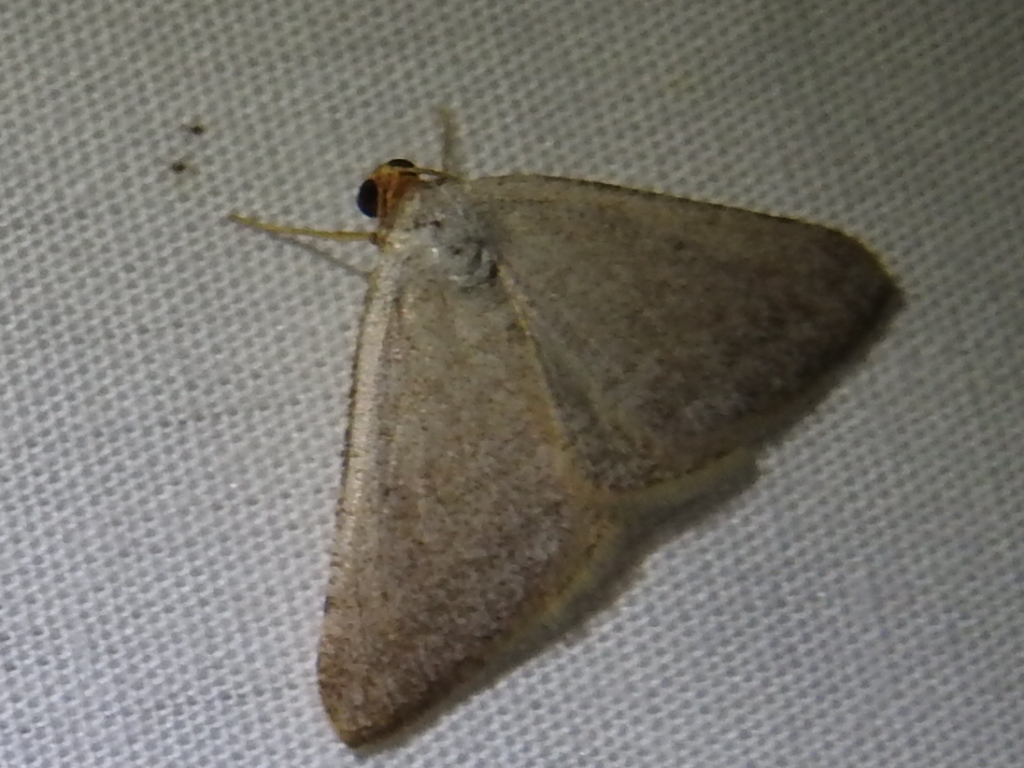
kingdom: Animalia
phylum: Arthropoda
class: Insecta
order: Lepidoptera
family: Geometridae
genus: Macaria
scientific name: Macaria tenebrosata
